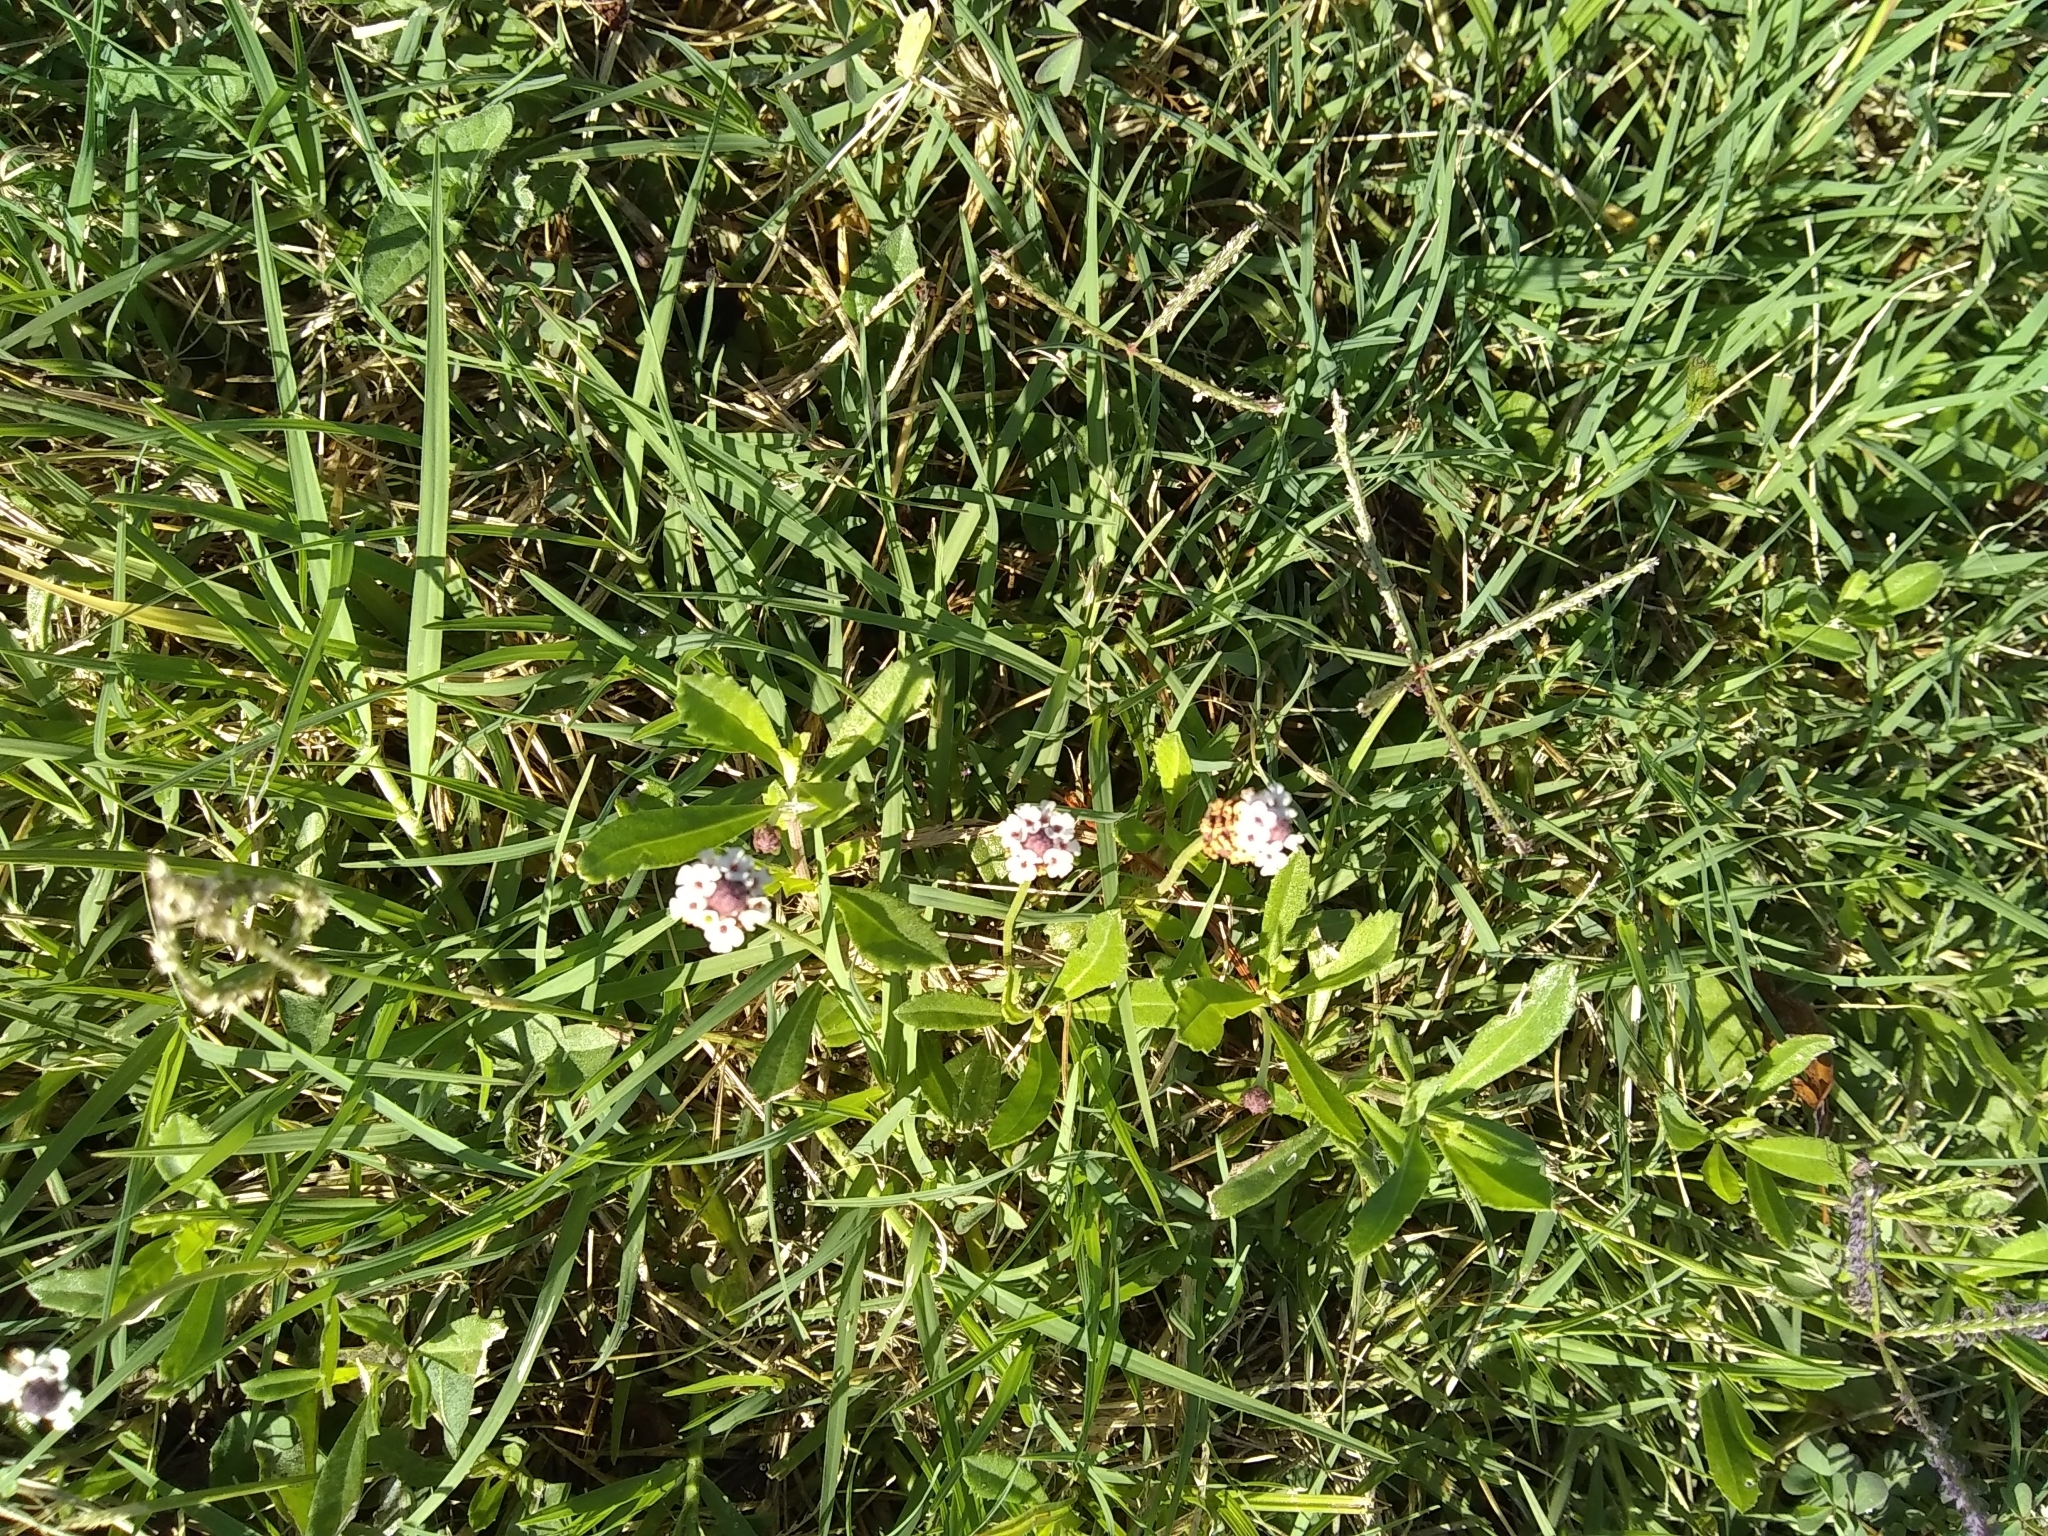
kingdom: Plantae
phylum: Tracheophyta
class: Magnoliopsida
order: Lamiales
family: Verbenaceae
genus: Phyla
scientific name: Phyla nodiflora
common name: Frogfruit
